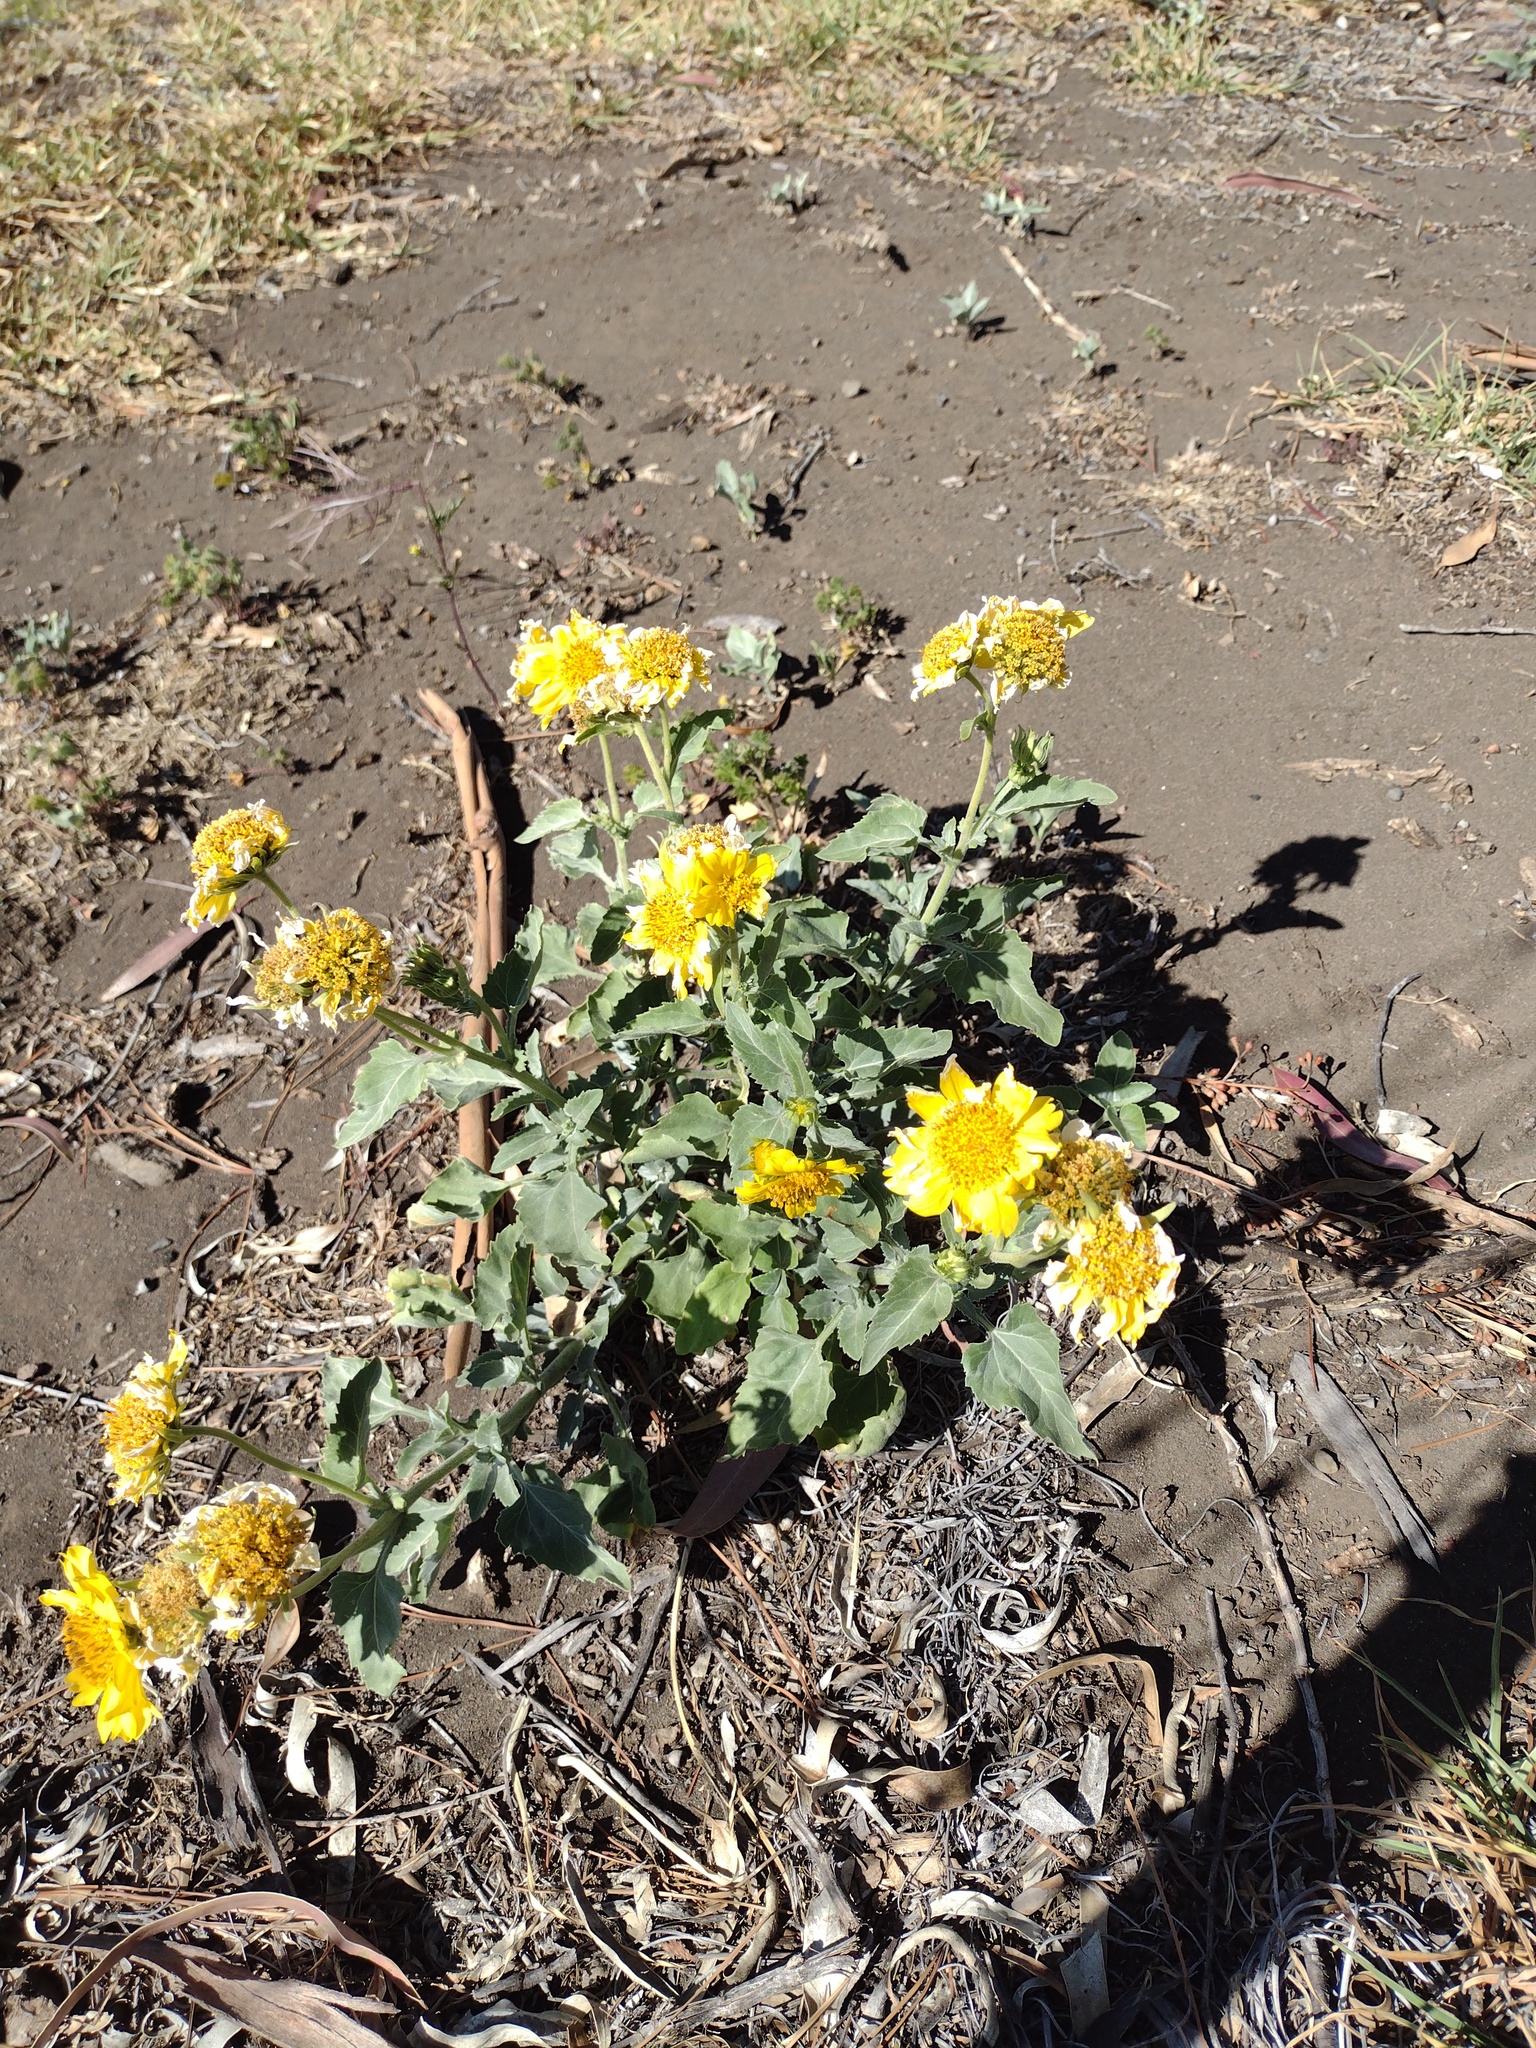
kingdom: Plantae
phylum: Tracheophyta
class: Magnoliopsida
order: Asterales
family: Asteraceae
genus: Verbesina
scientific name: Verbesina encelioides
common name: Golden crownbeard
